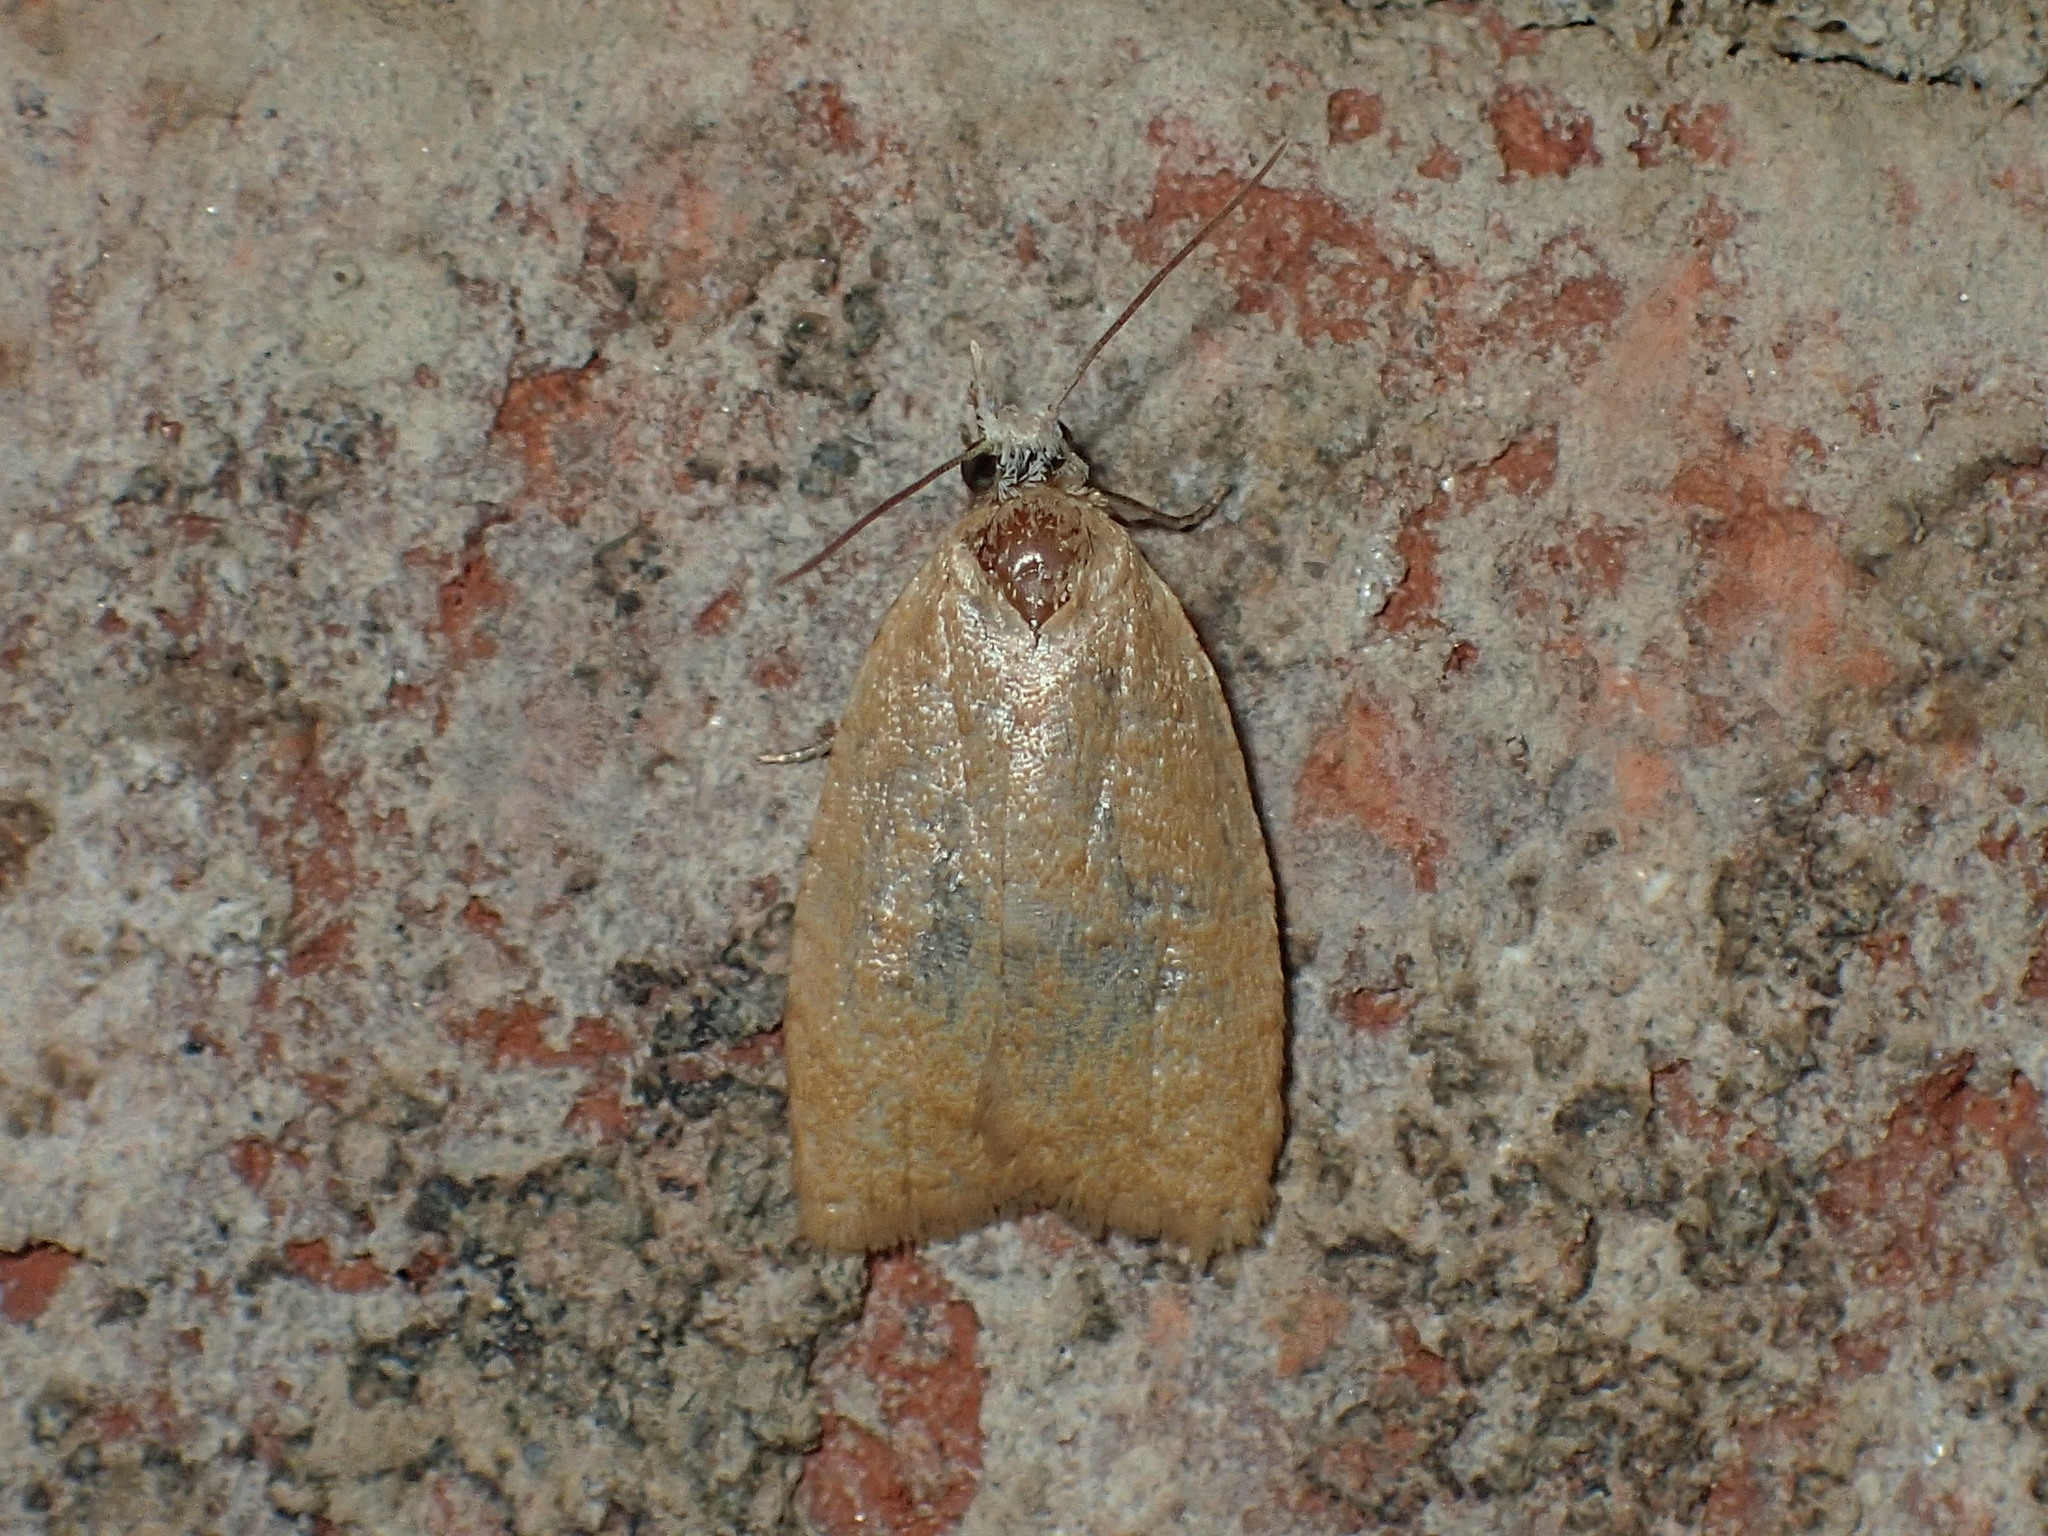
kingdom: Animalia
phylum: Arthropoda
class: Insecta
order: Lepidoptera
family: Tortricidae
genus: Sparganothoides
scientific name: Sparganothoides lentiginosana
